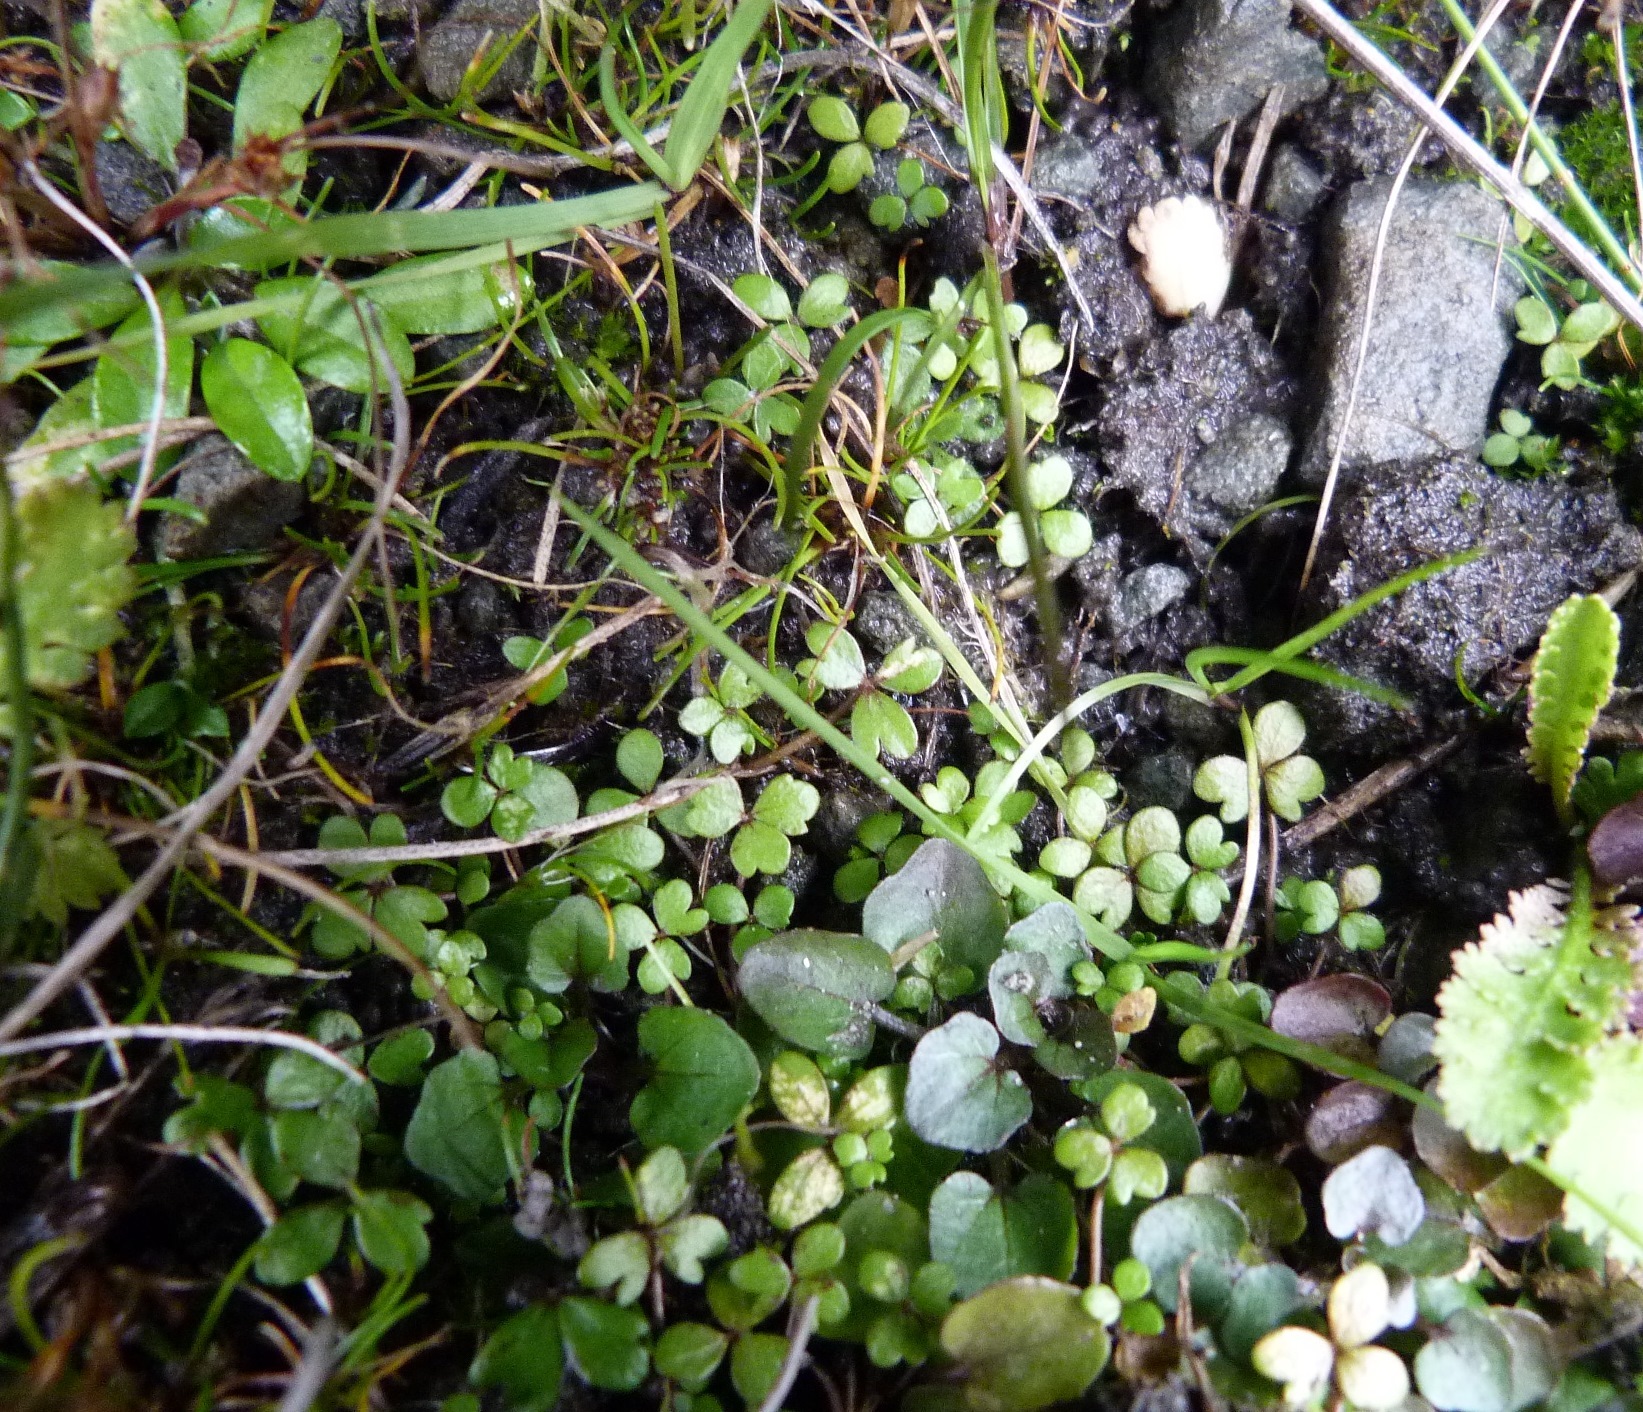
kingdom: Plantae
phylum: Tracheophyta
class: Magnoliopsida
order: Apiales
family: Araliaceae
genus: Hydrocotyle
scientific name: Hydrocotyle sulcata
